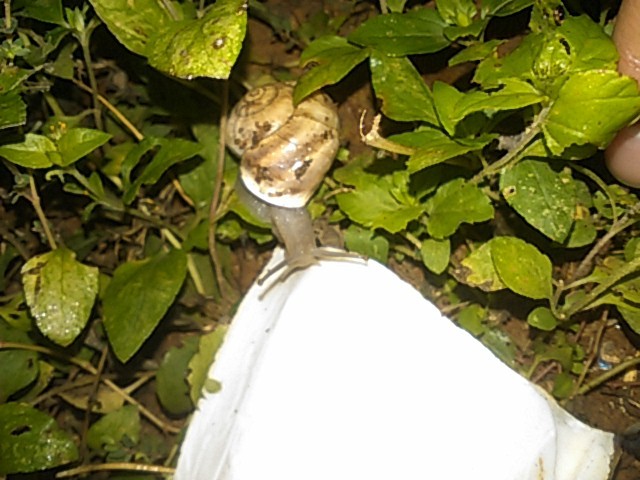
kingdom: Animalia
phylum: Mollusca
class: Gastropoda
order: Stylommatophora
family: Helicidae
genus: Otala
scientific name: Otala lactea
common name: Milk snail
